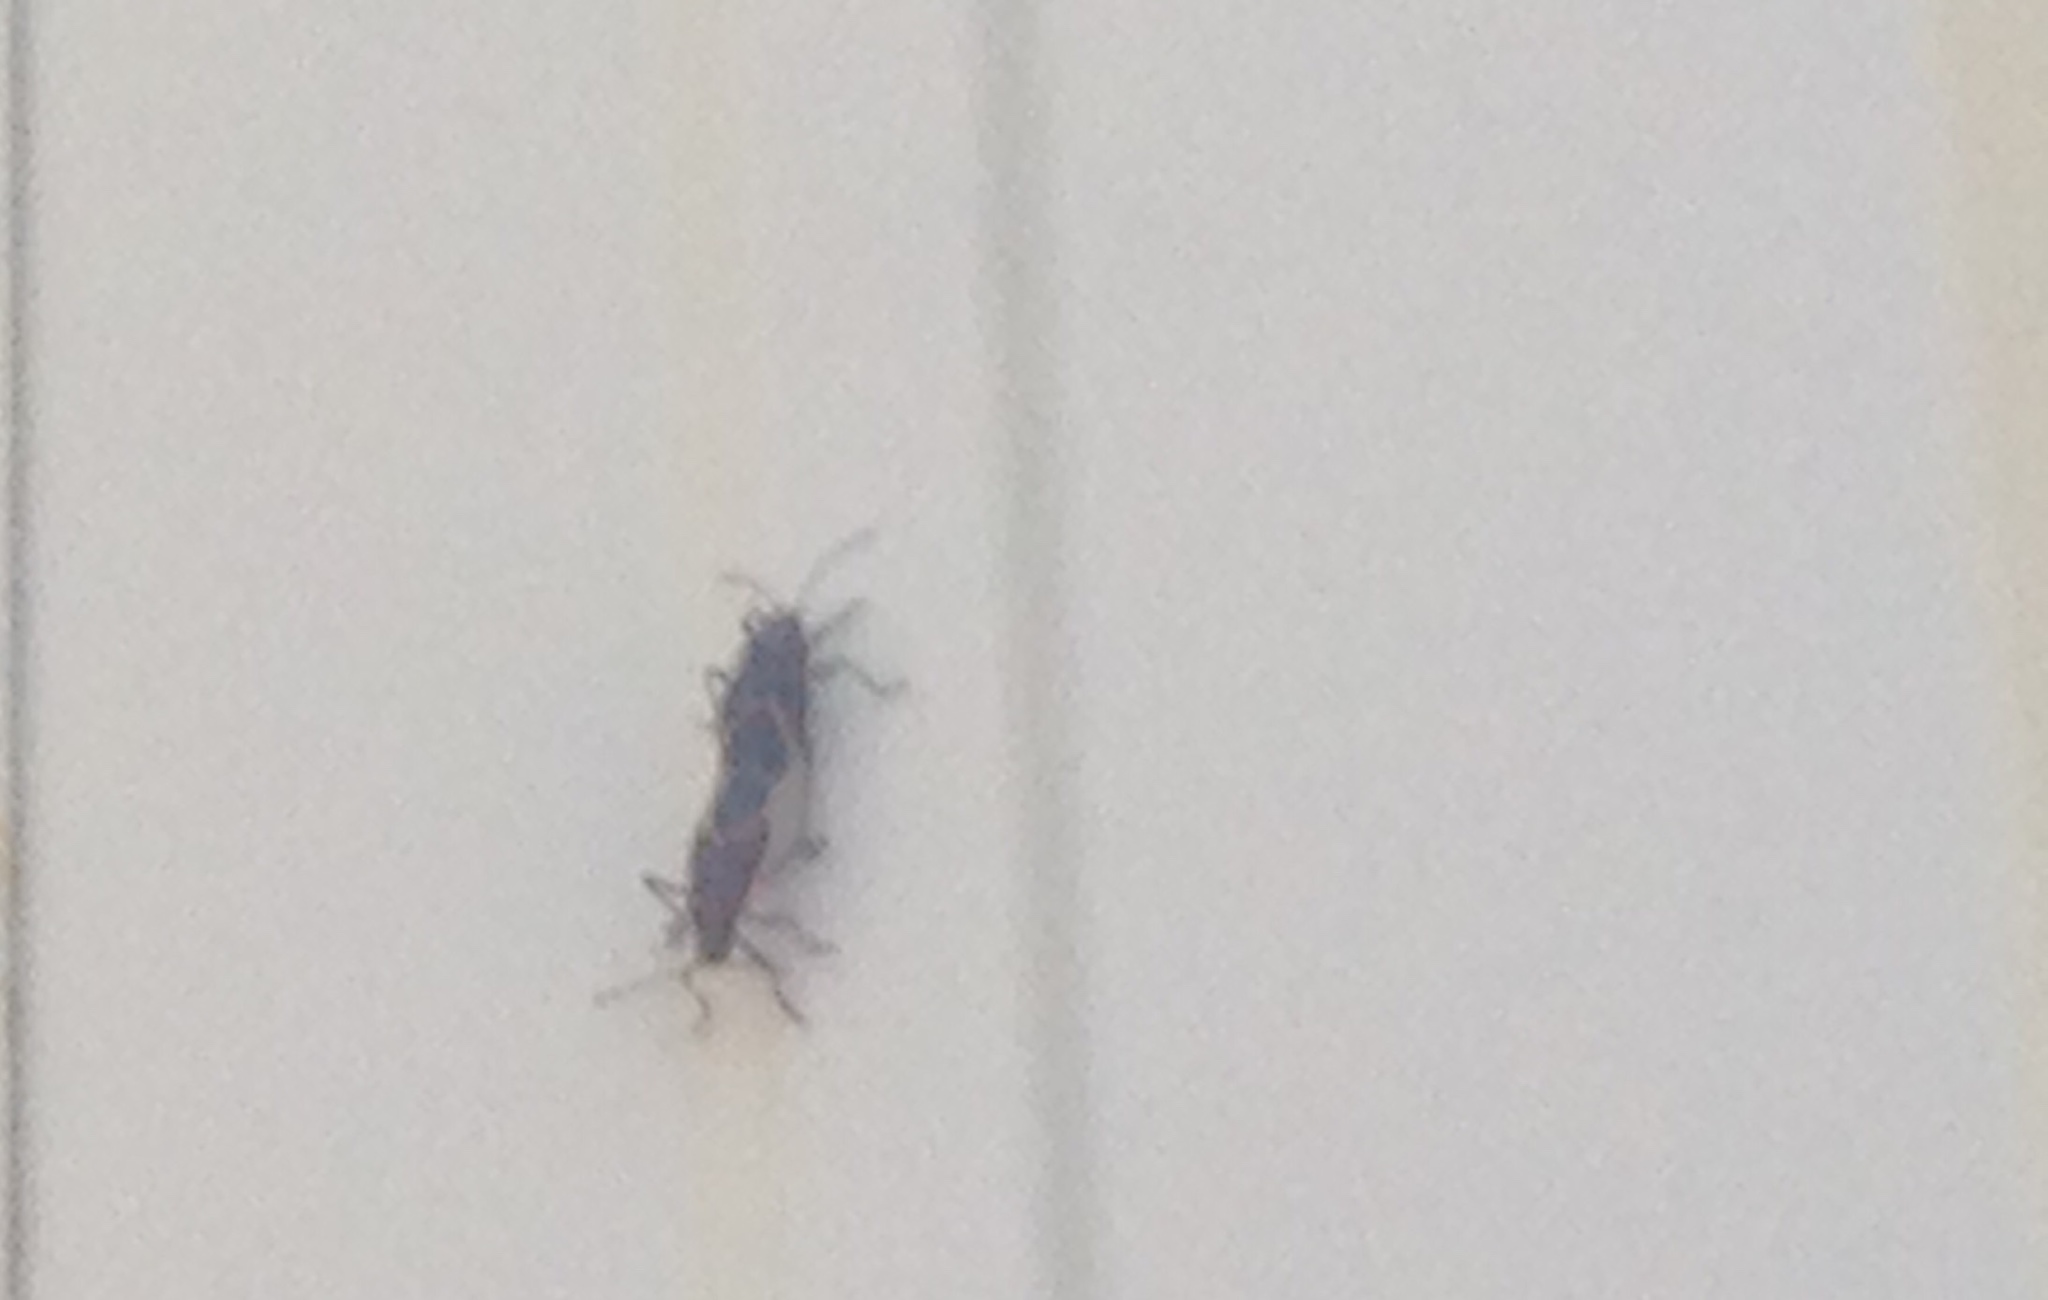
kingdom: Animalia
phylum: Arthropoda
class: Insecta
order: Hemiptera
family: Rhopalidae
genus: Boisea
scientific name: Boisea trivittata
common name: Boxelder bug
